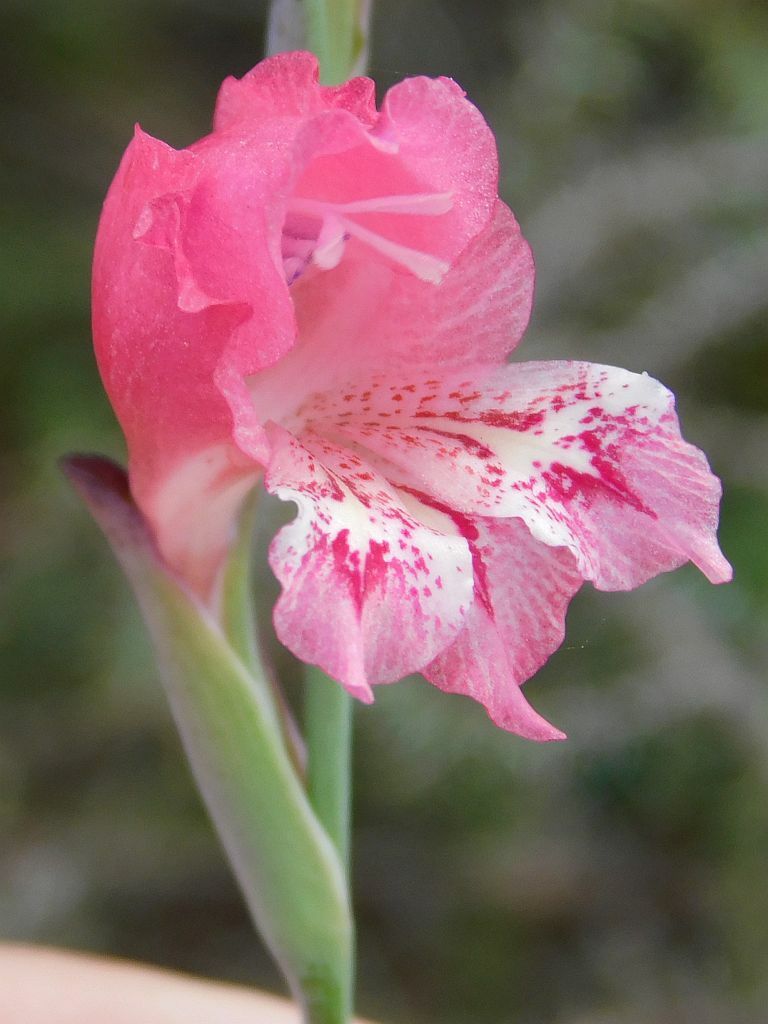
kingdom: Plantae
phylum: Tracheophyta
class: Liliopsida
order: Asparagales
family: Iridaceae
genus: Gladiolus
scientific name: Gladiolus brevifolius
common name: March pypie
